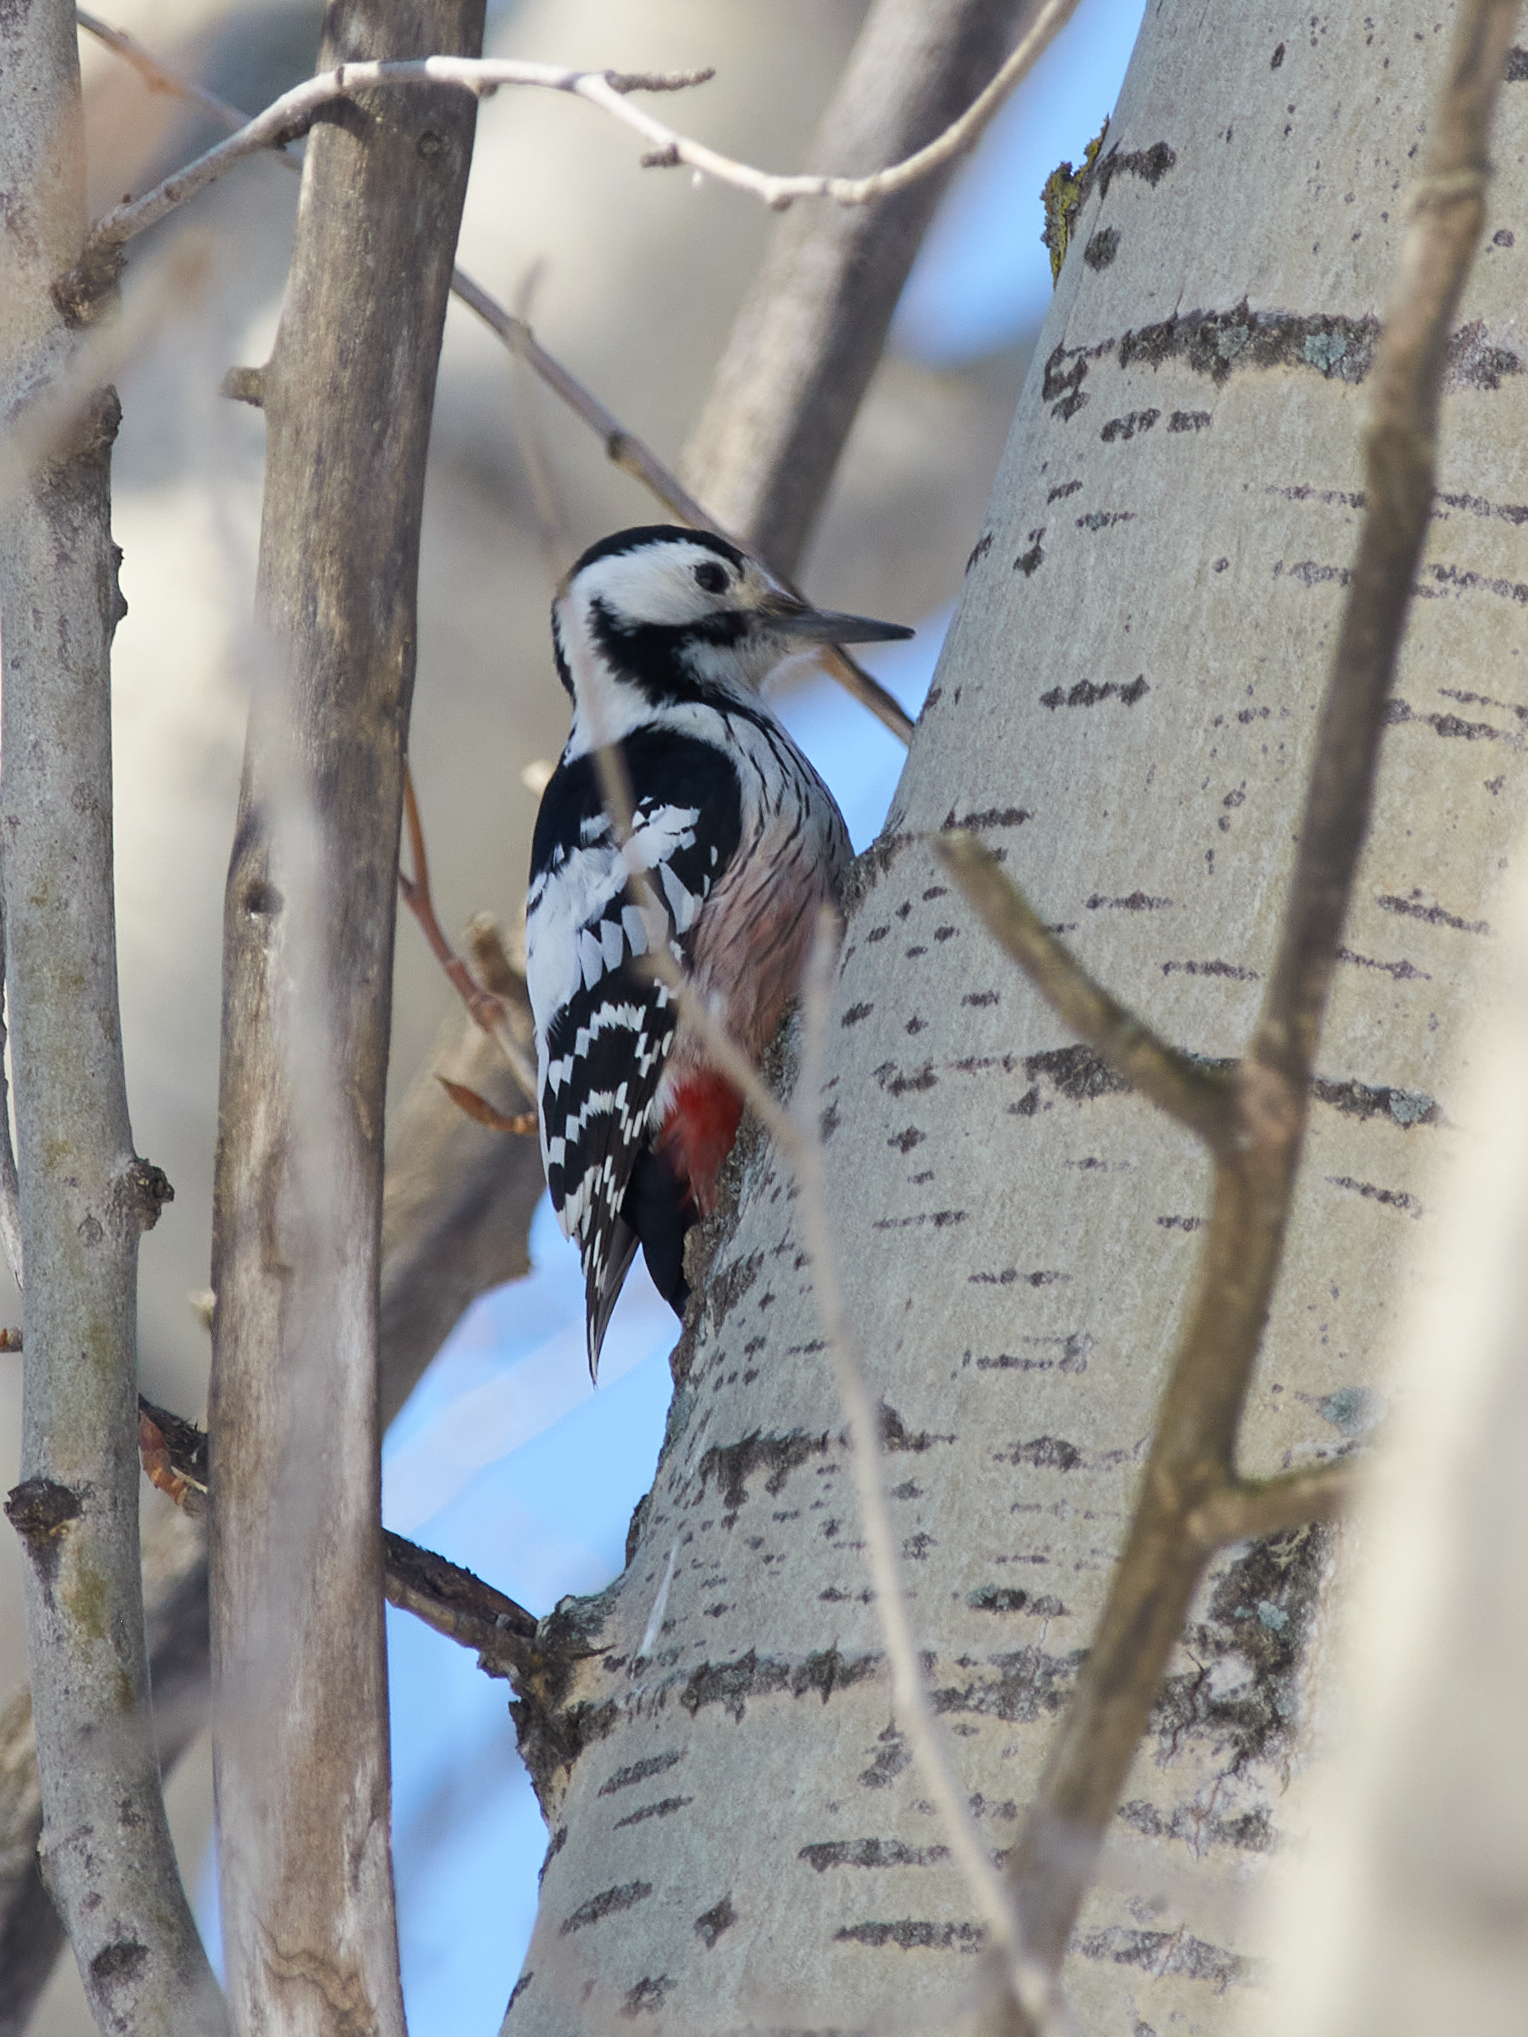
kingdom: Animalia
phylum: Chordata
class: Aves
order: Piciformes
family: Picidae
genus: Dendrocopos
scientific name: Dendrocopos leucotos
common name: White-backed woodpecker
